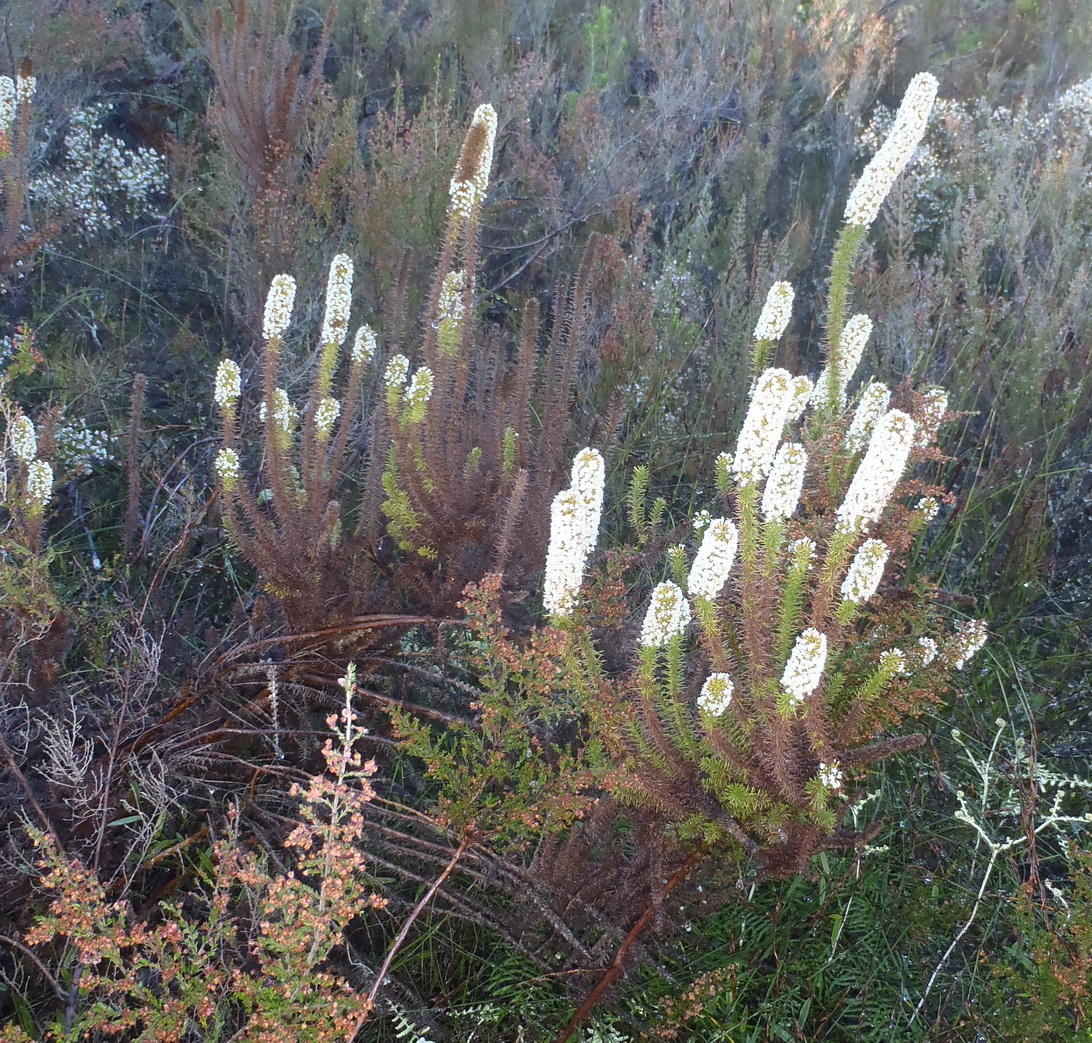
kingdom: Plantae
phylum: Tracheophyta
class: Magnoliopsida
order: Asterales
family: Asteraceae
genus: Stoebe
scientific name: Stoebe alopecuroides
